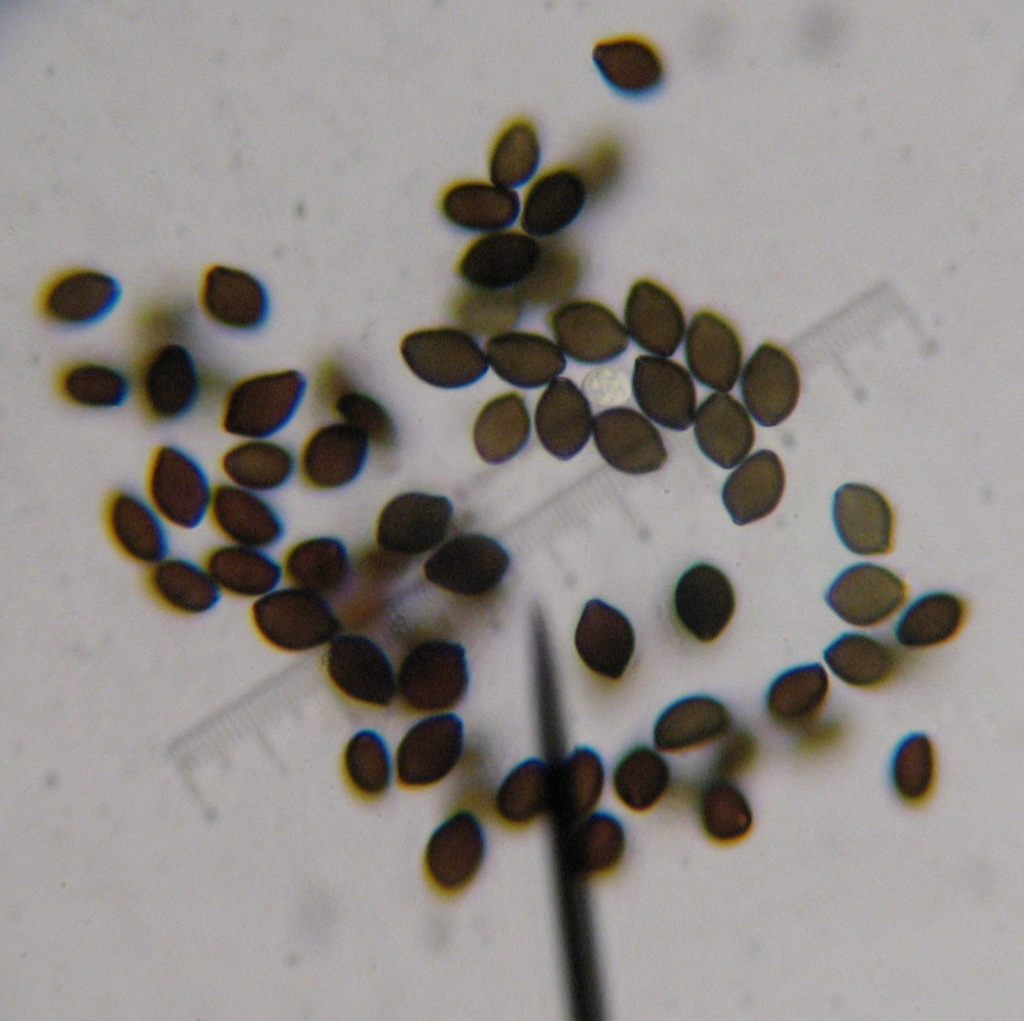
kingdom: Fungi
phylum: Basidiomycota
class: Agaricomycetes
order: Agaricales
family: Bolbitiaceae
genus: Panaeolus
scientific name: Panaeolus atrobalteatus
